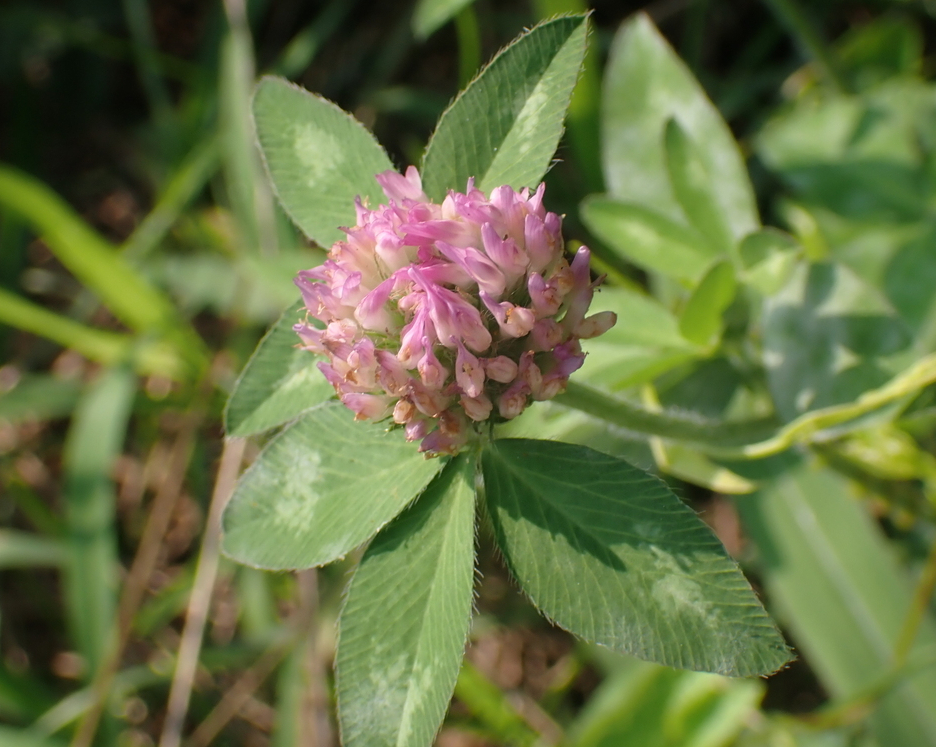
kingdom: Plantae
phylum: Tracheophyta
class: Magnoliopsida
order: Fabales
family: Fabaceae
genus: Trifolium
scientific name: Trifolium pratense
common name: Red clover
